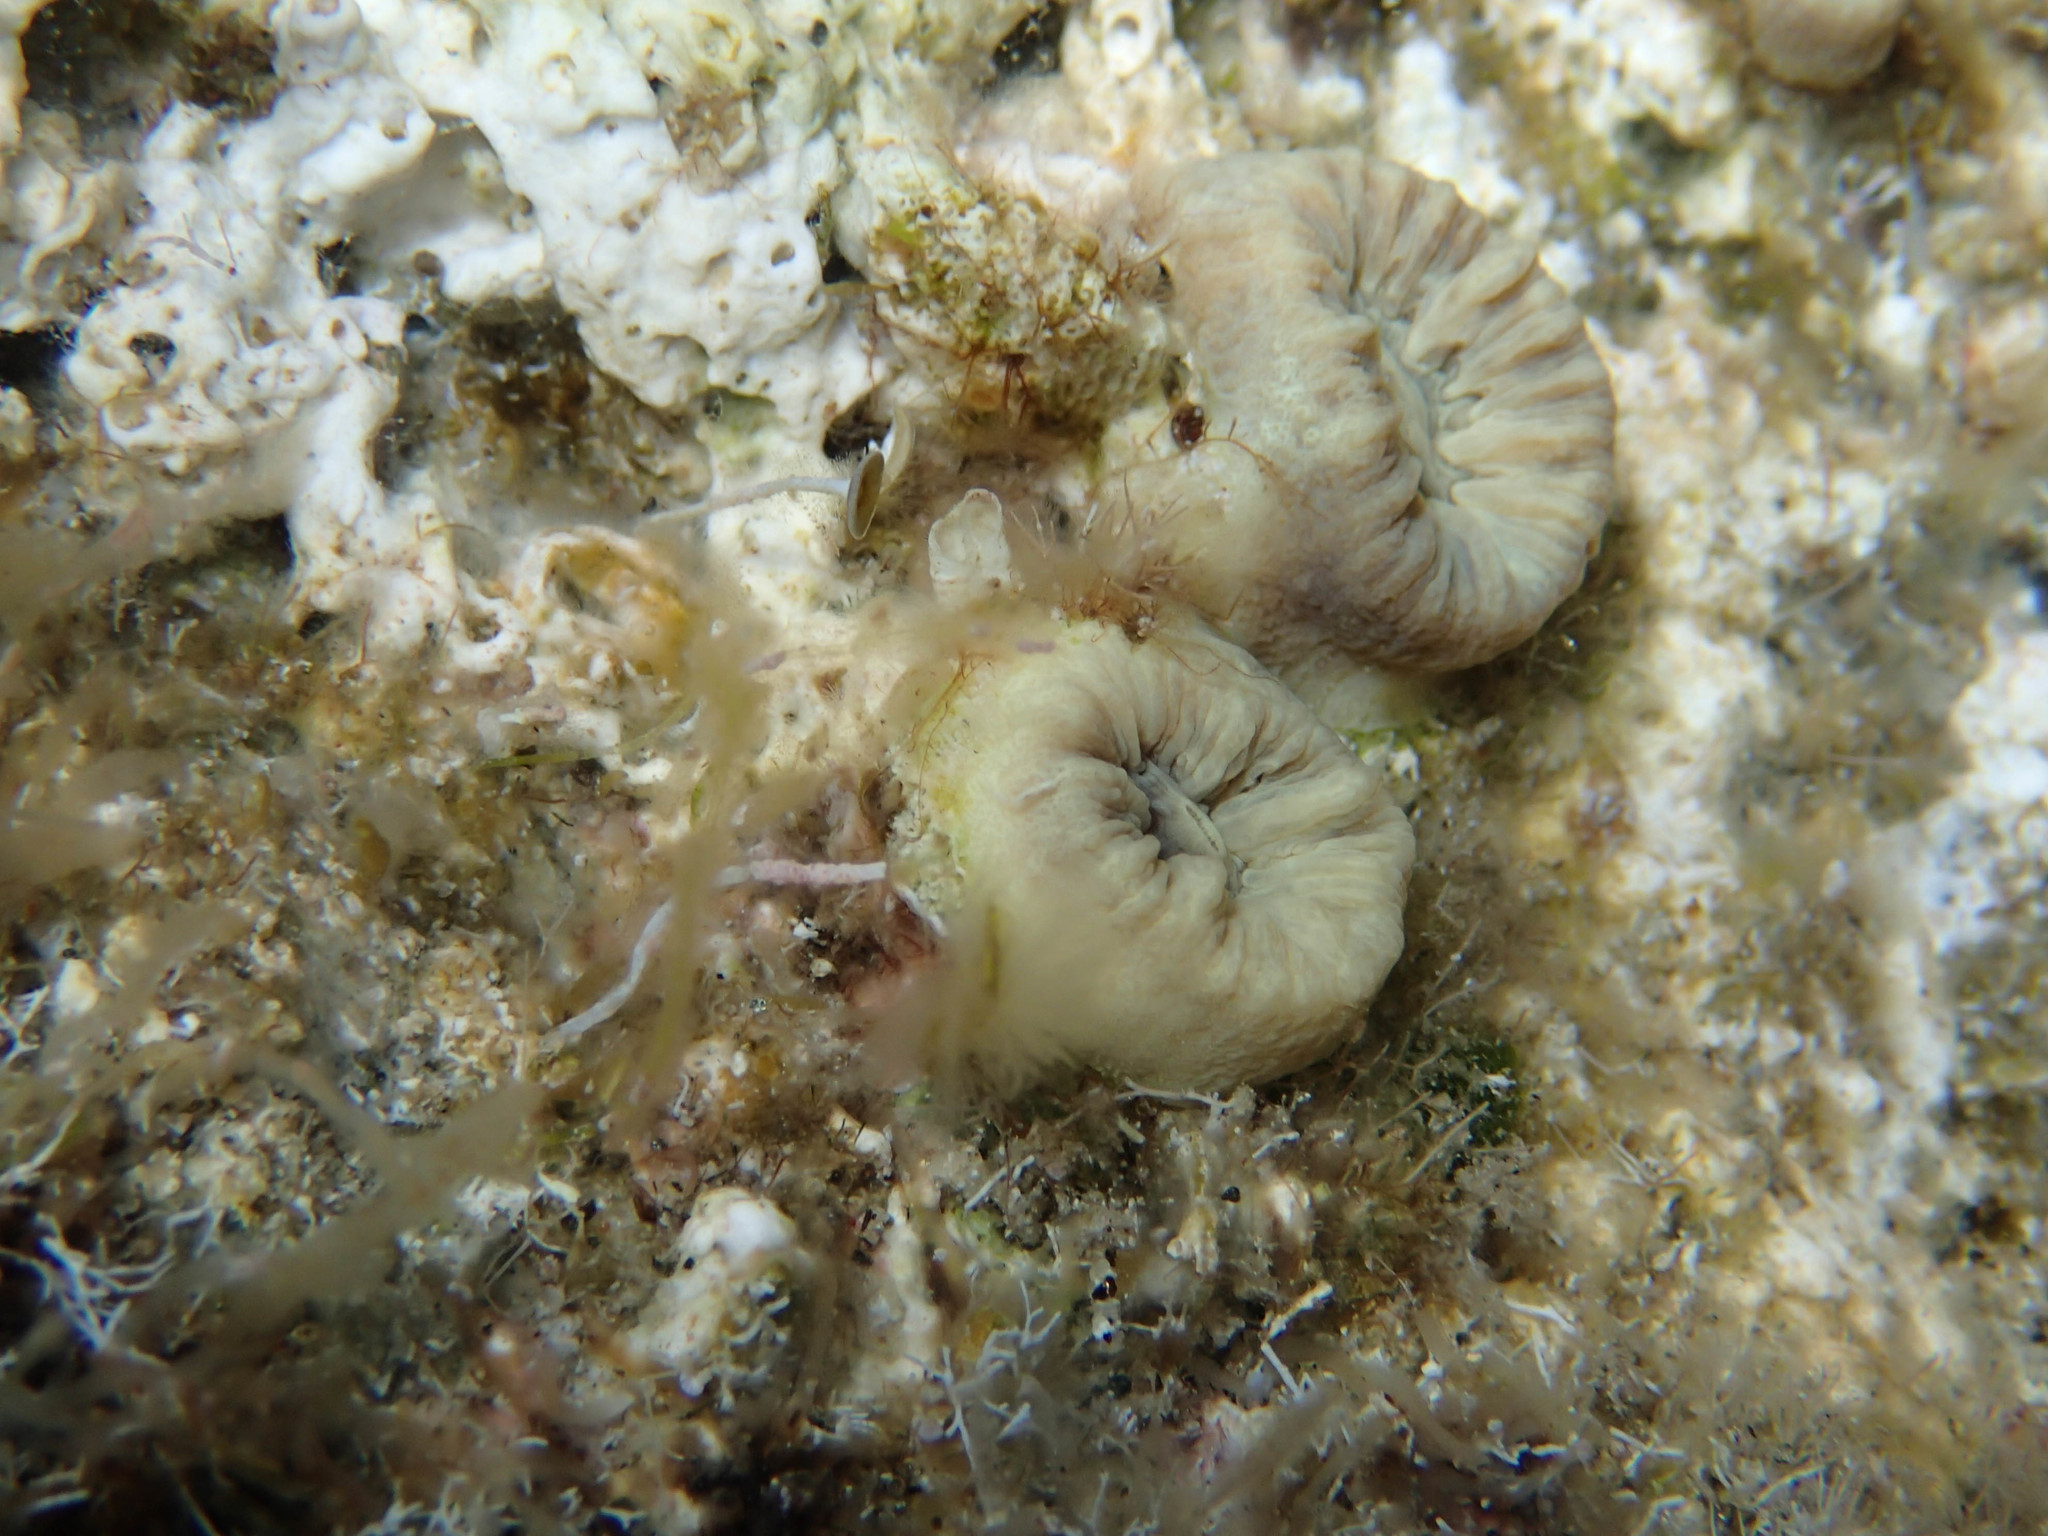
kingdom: Animalia
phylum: Cnidaria
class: Anthozoa
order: Scleractinia
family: Dendrophylliidae
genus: Balanophyllia
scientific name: Balanophyllia europaea
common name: Scarlet coral
